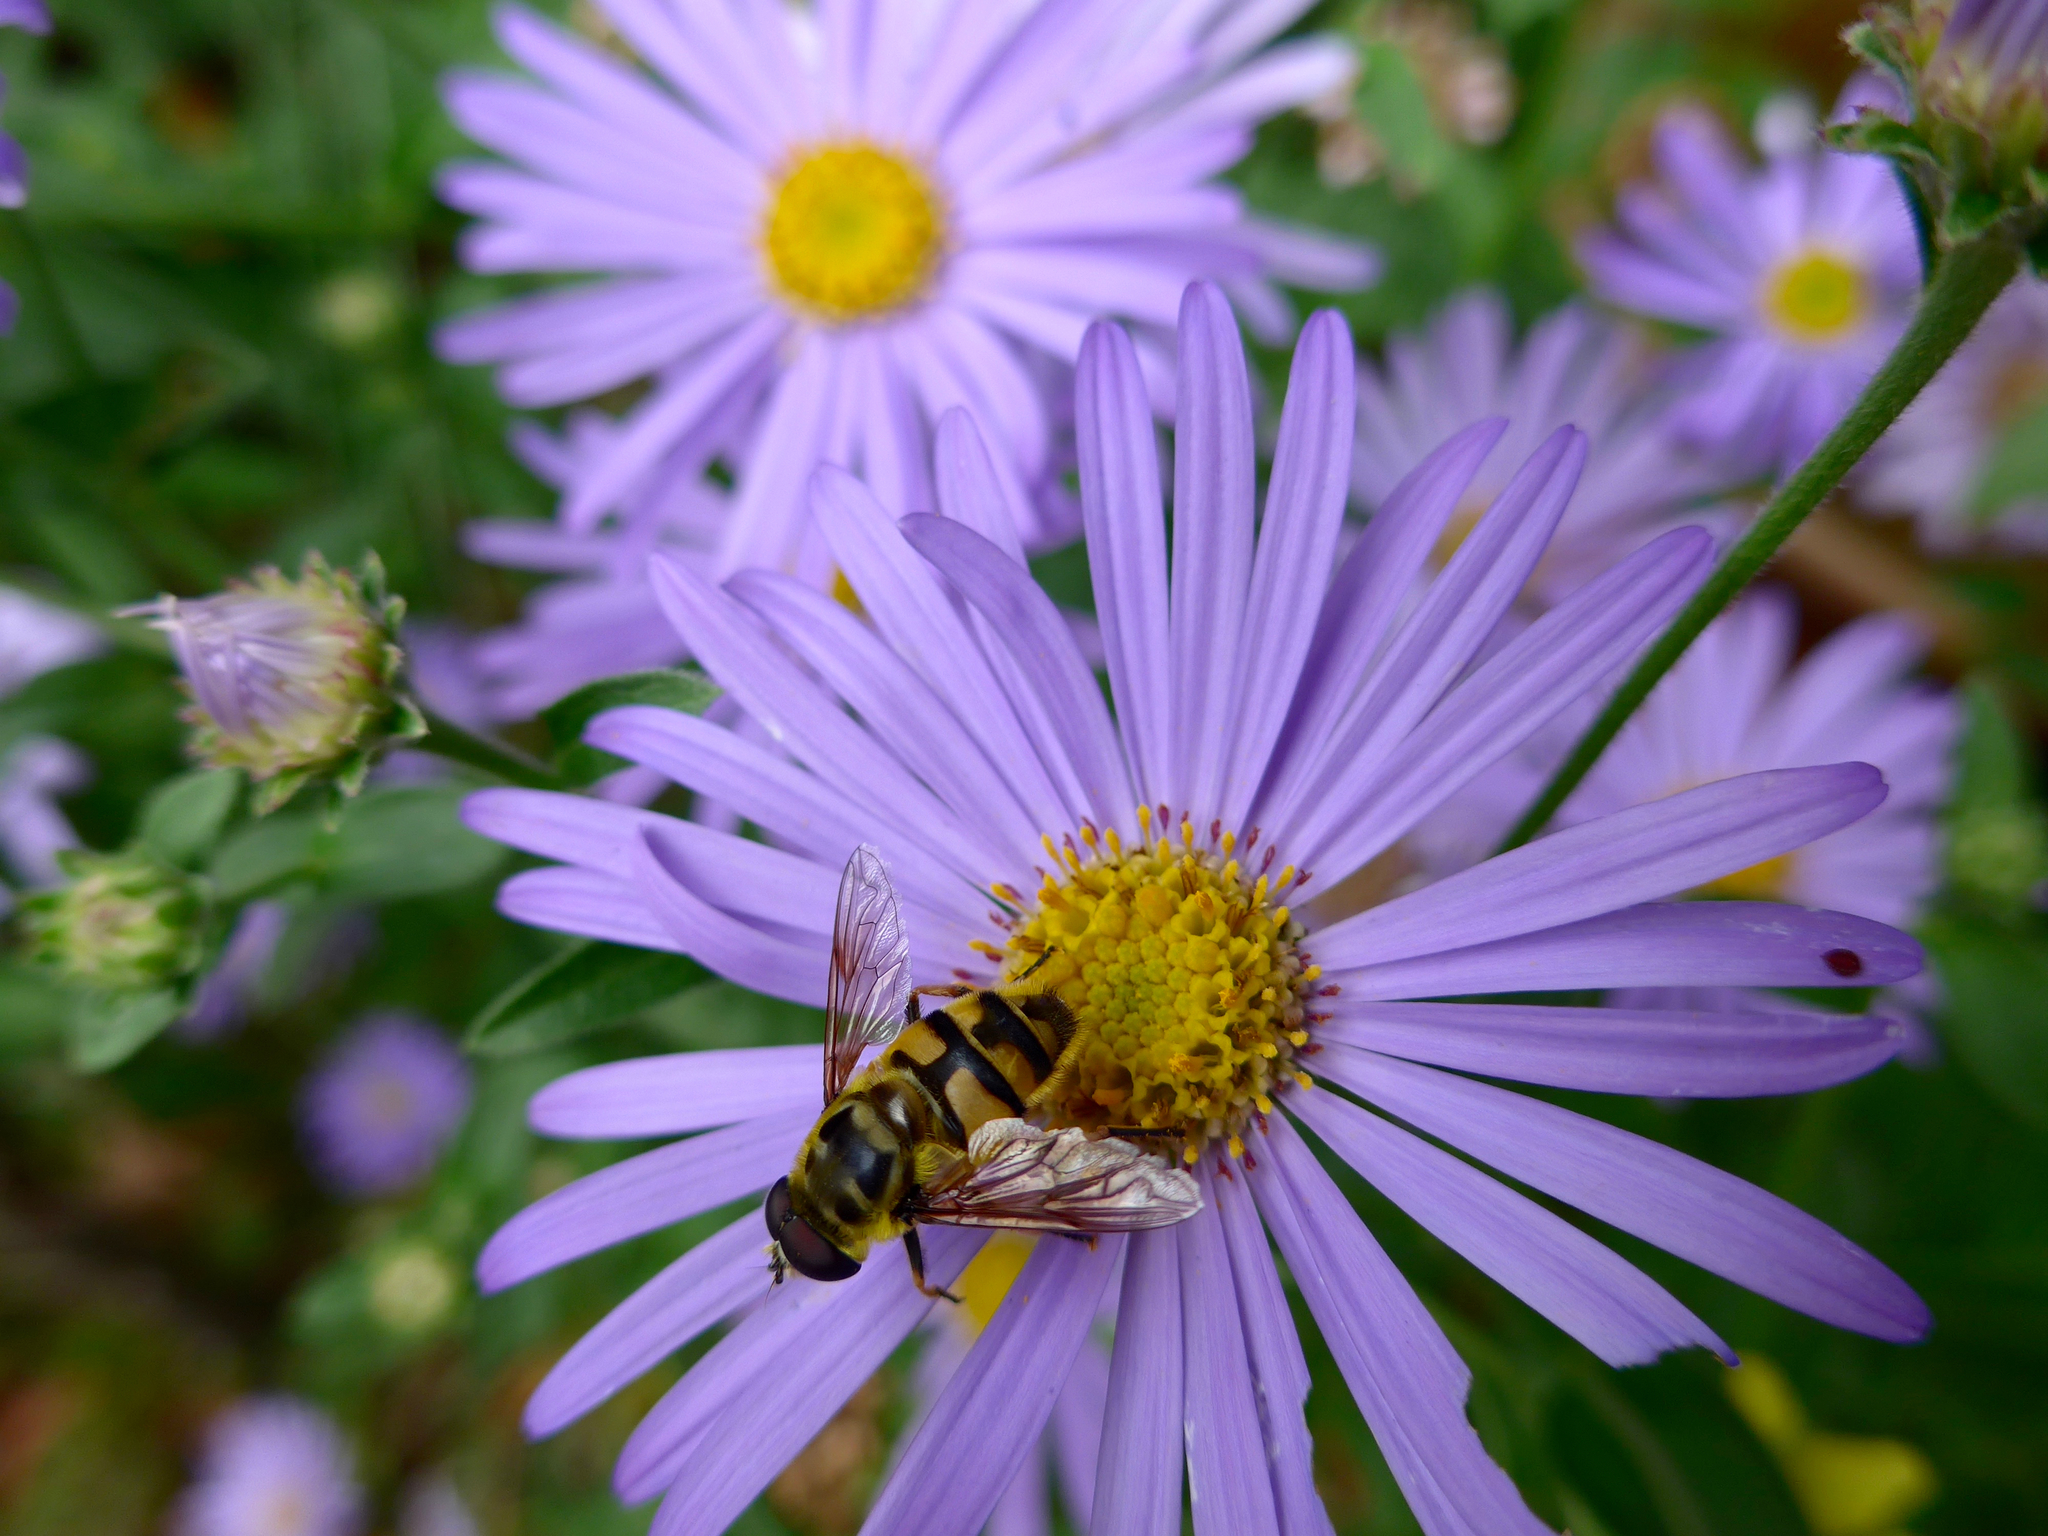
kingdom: Animalia
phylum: Arthropoda
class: Insecta
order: Diptera
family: Syrphidae
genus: Myathropa
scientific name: Myathropa florea
